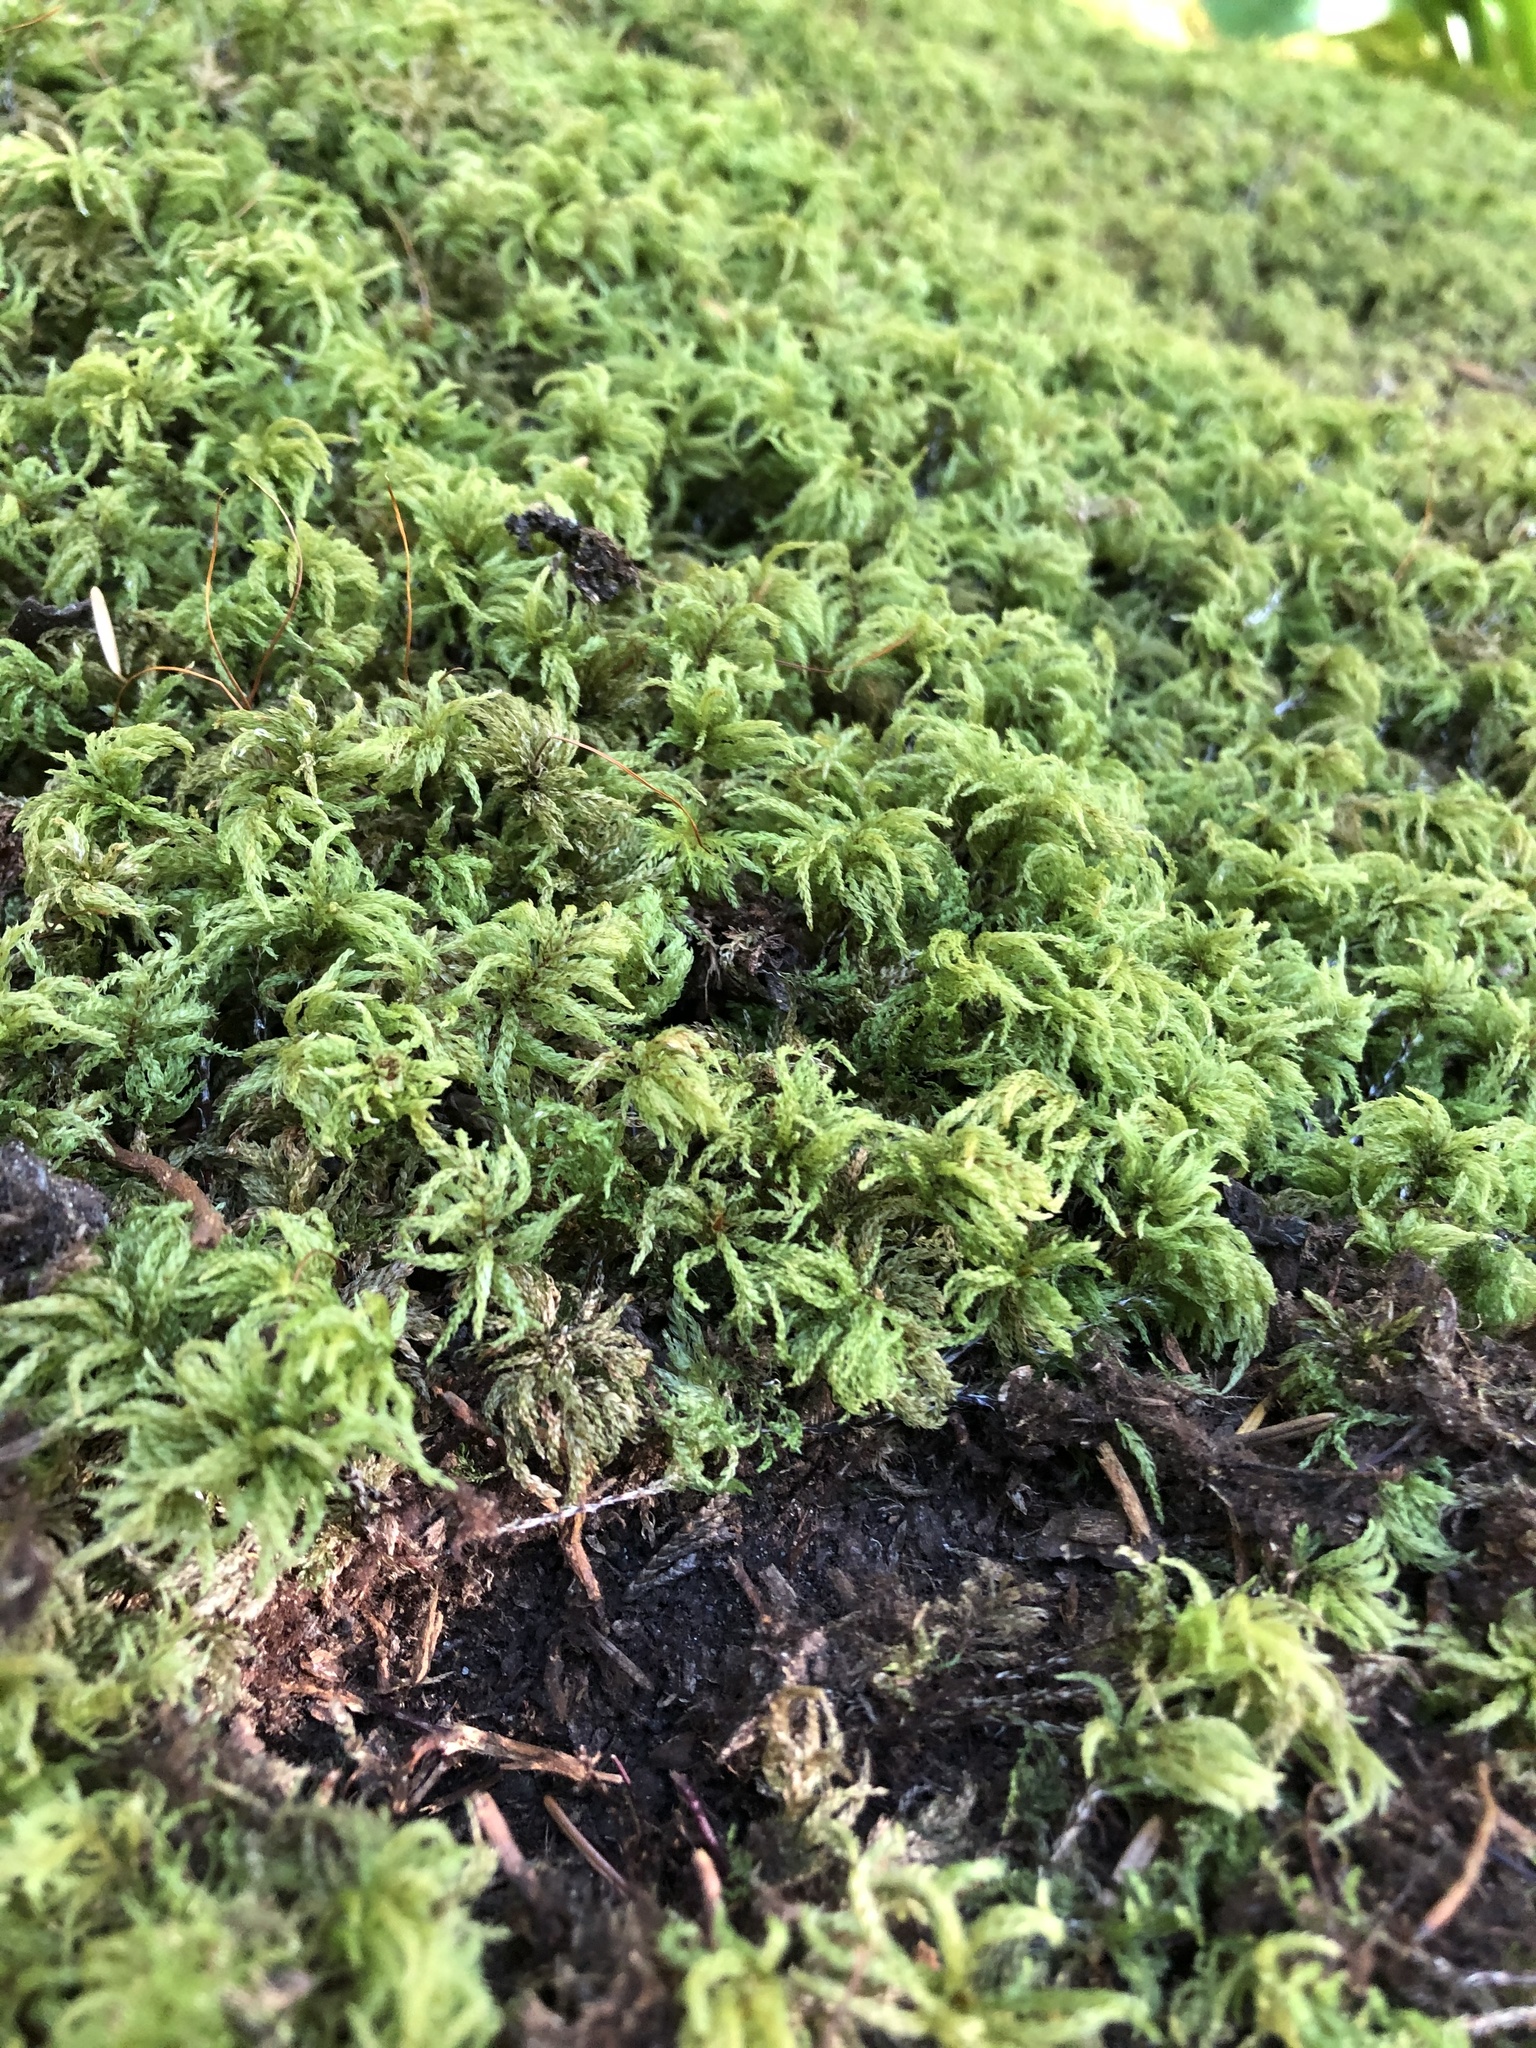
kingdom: Plantae
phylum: Bryophyta
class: Bryopsida
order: Bryales
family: Mniaceae
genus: Leucolepis
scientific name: Leucolepis acanthoneura
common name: Leucolepis umbrella moss
